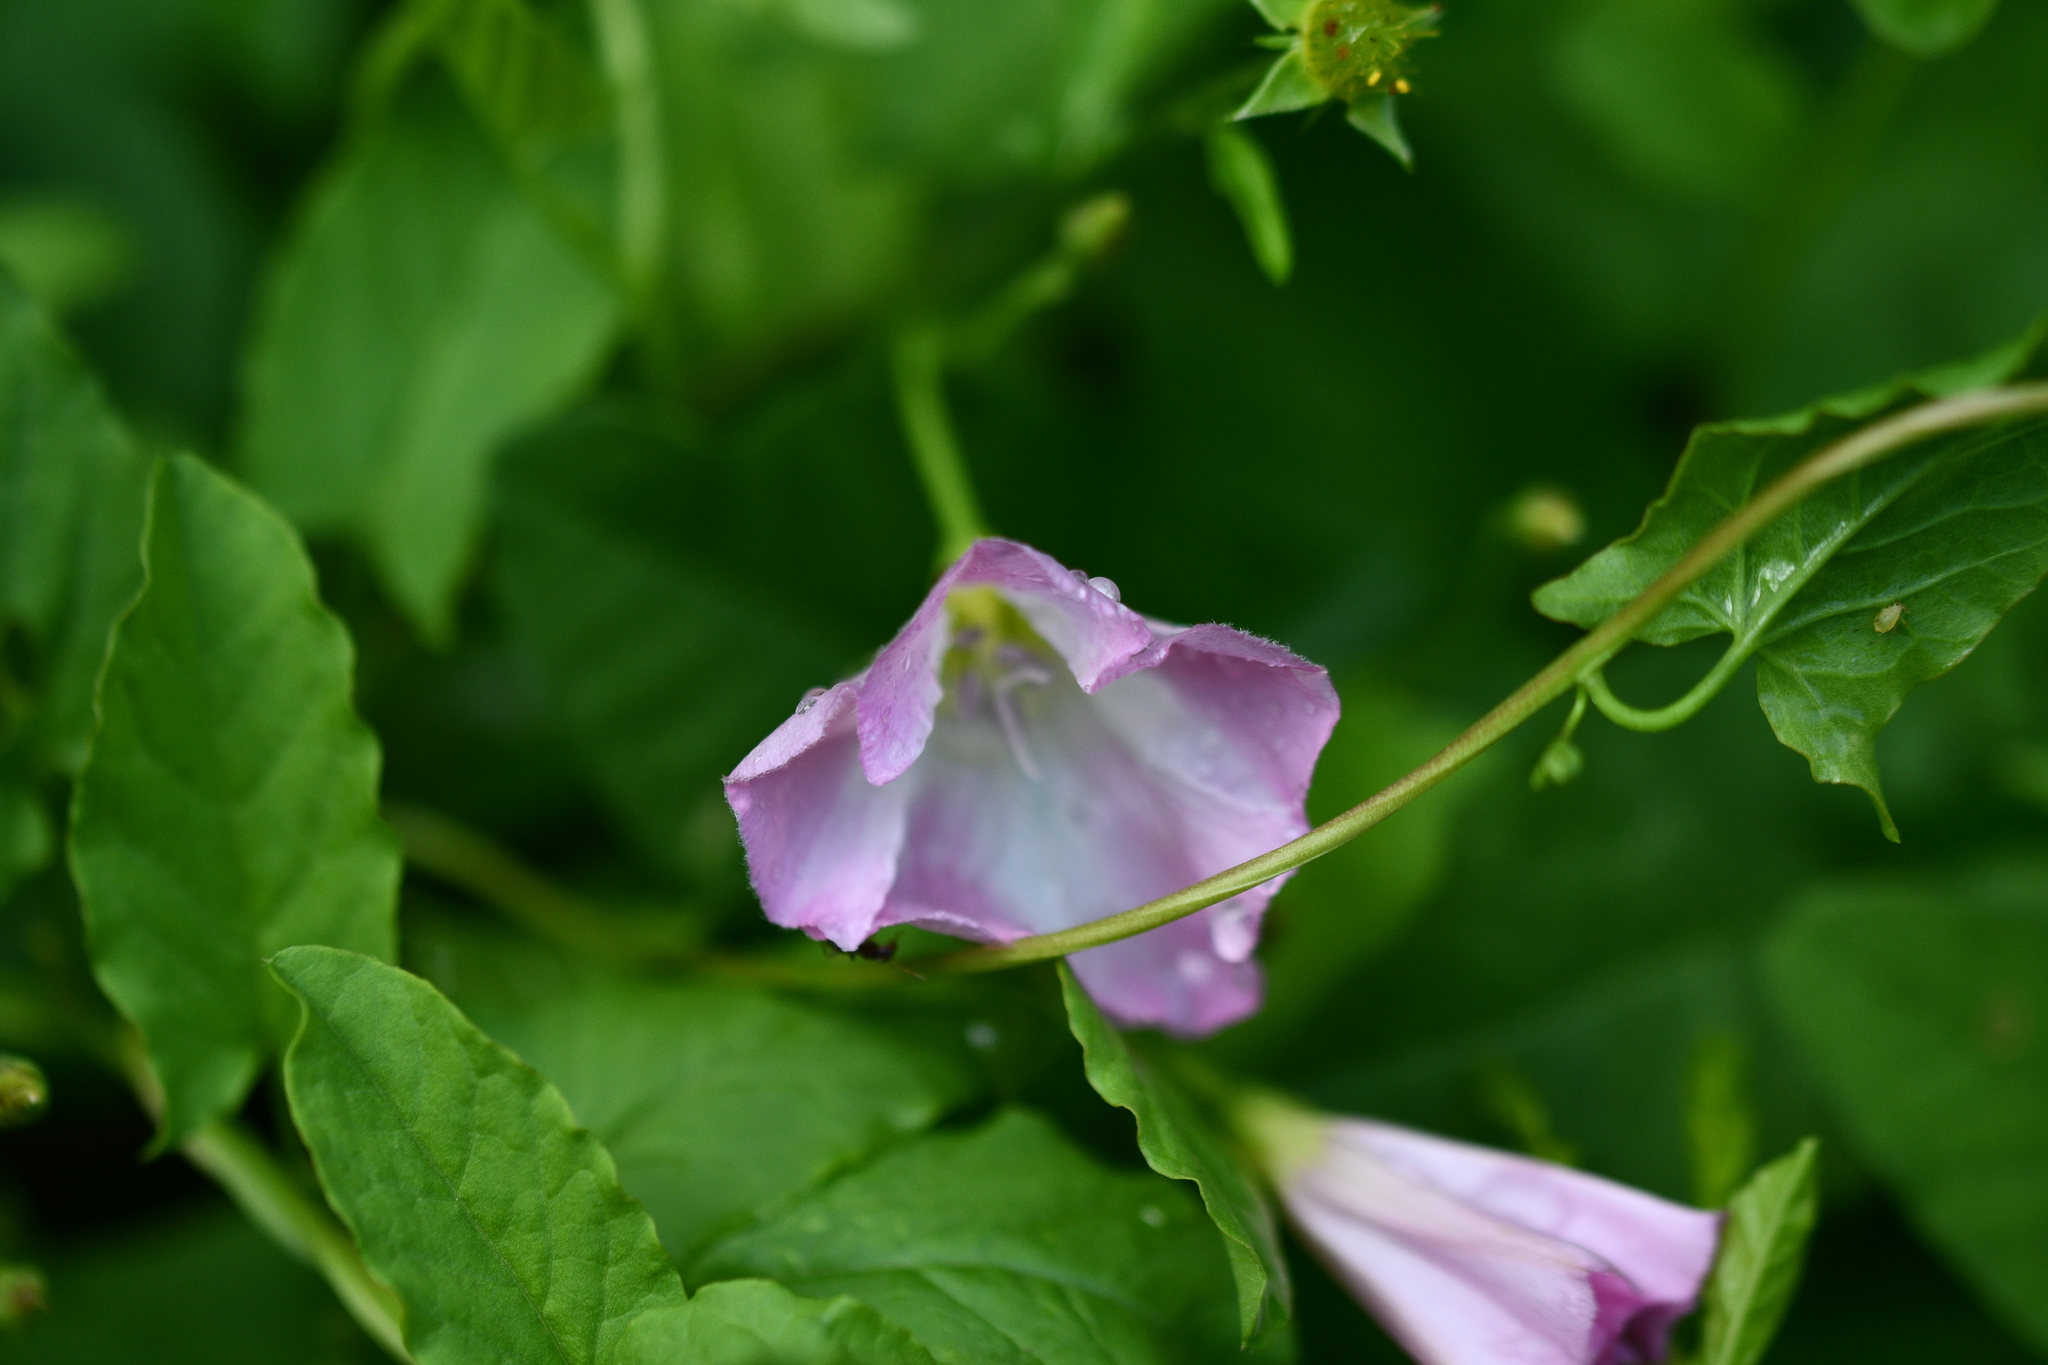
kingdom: Plantae
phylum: Tracheophyta
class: Magnoliopsida
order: Solanales
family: Convolvulaceae
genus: Convolvulus
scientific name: Convolvulus arvensis
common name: Field bindweed
